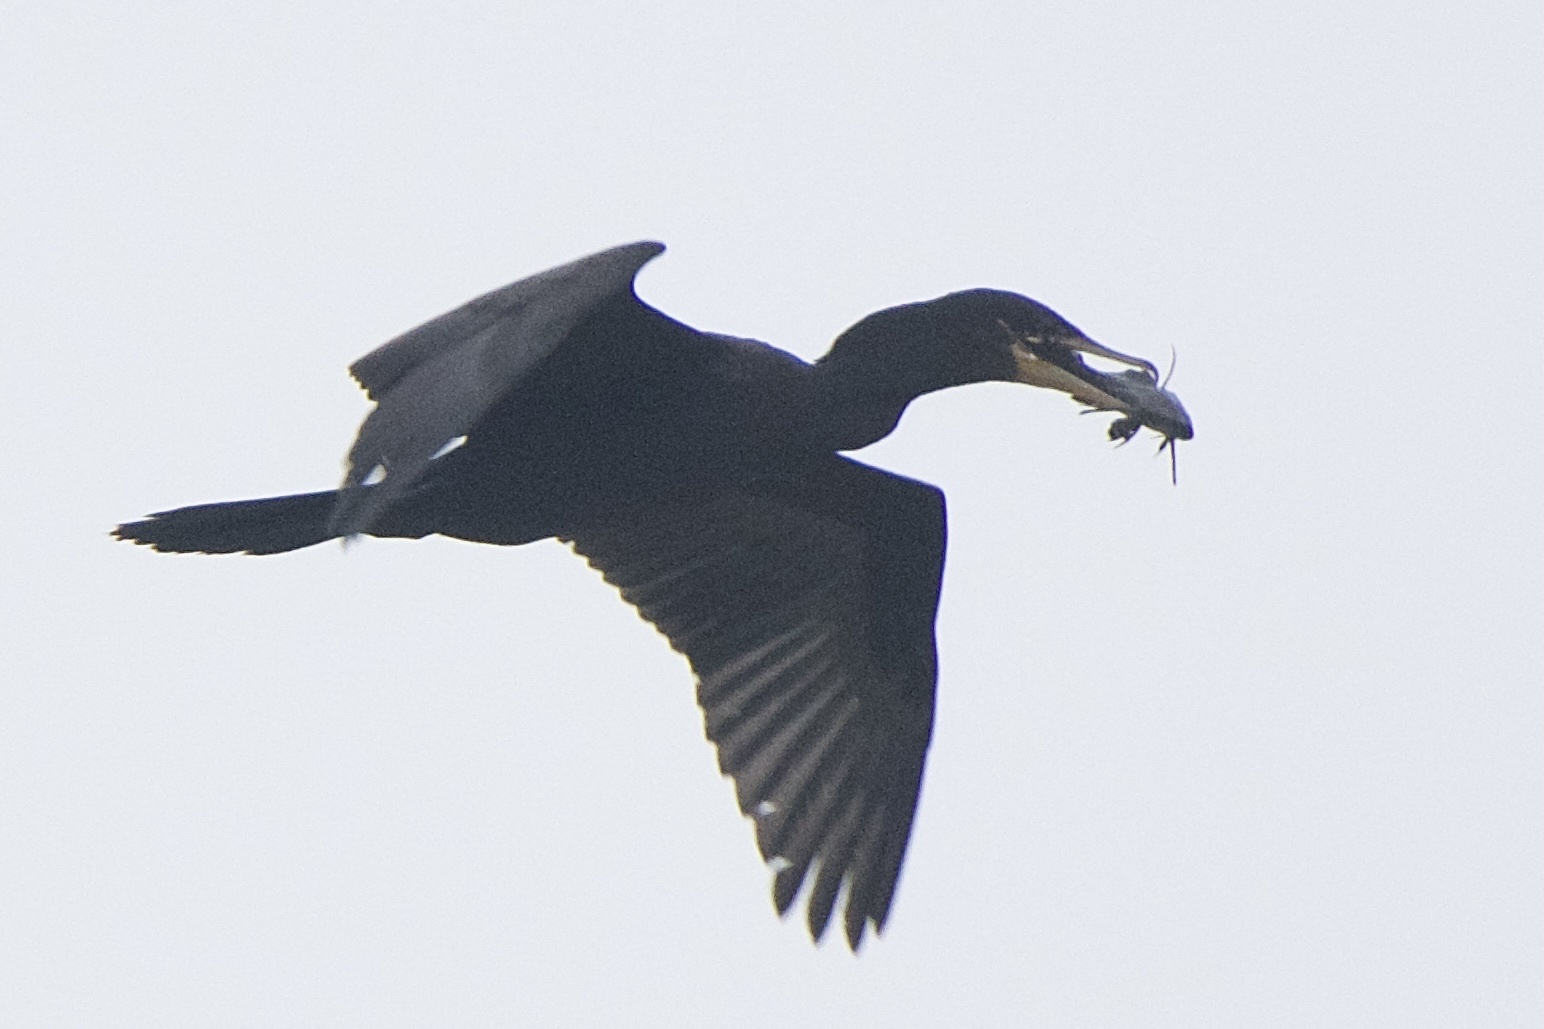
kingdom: Animalia
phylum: Chordata
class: Aves
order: Suliformes
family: Phalacrocoracidae
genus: Phalacrocorax
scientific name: Phalacrocorax brasilianus
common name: Neotropic cormorant
